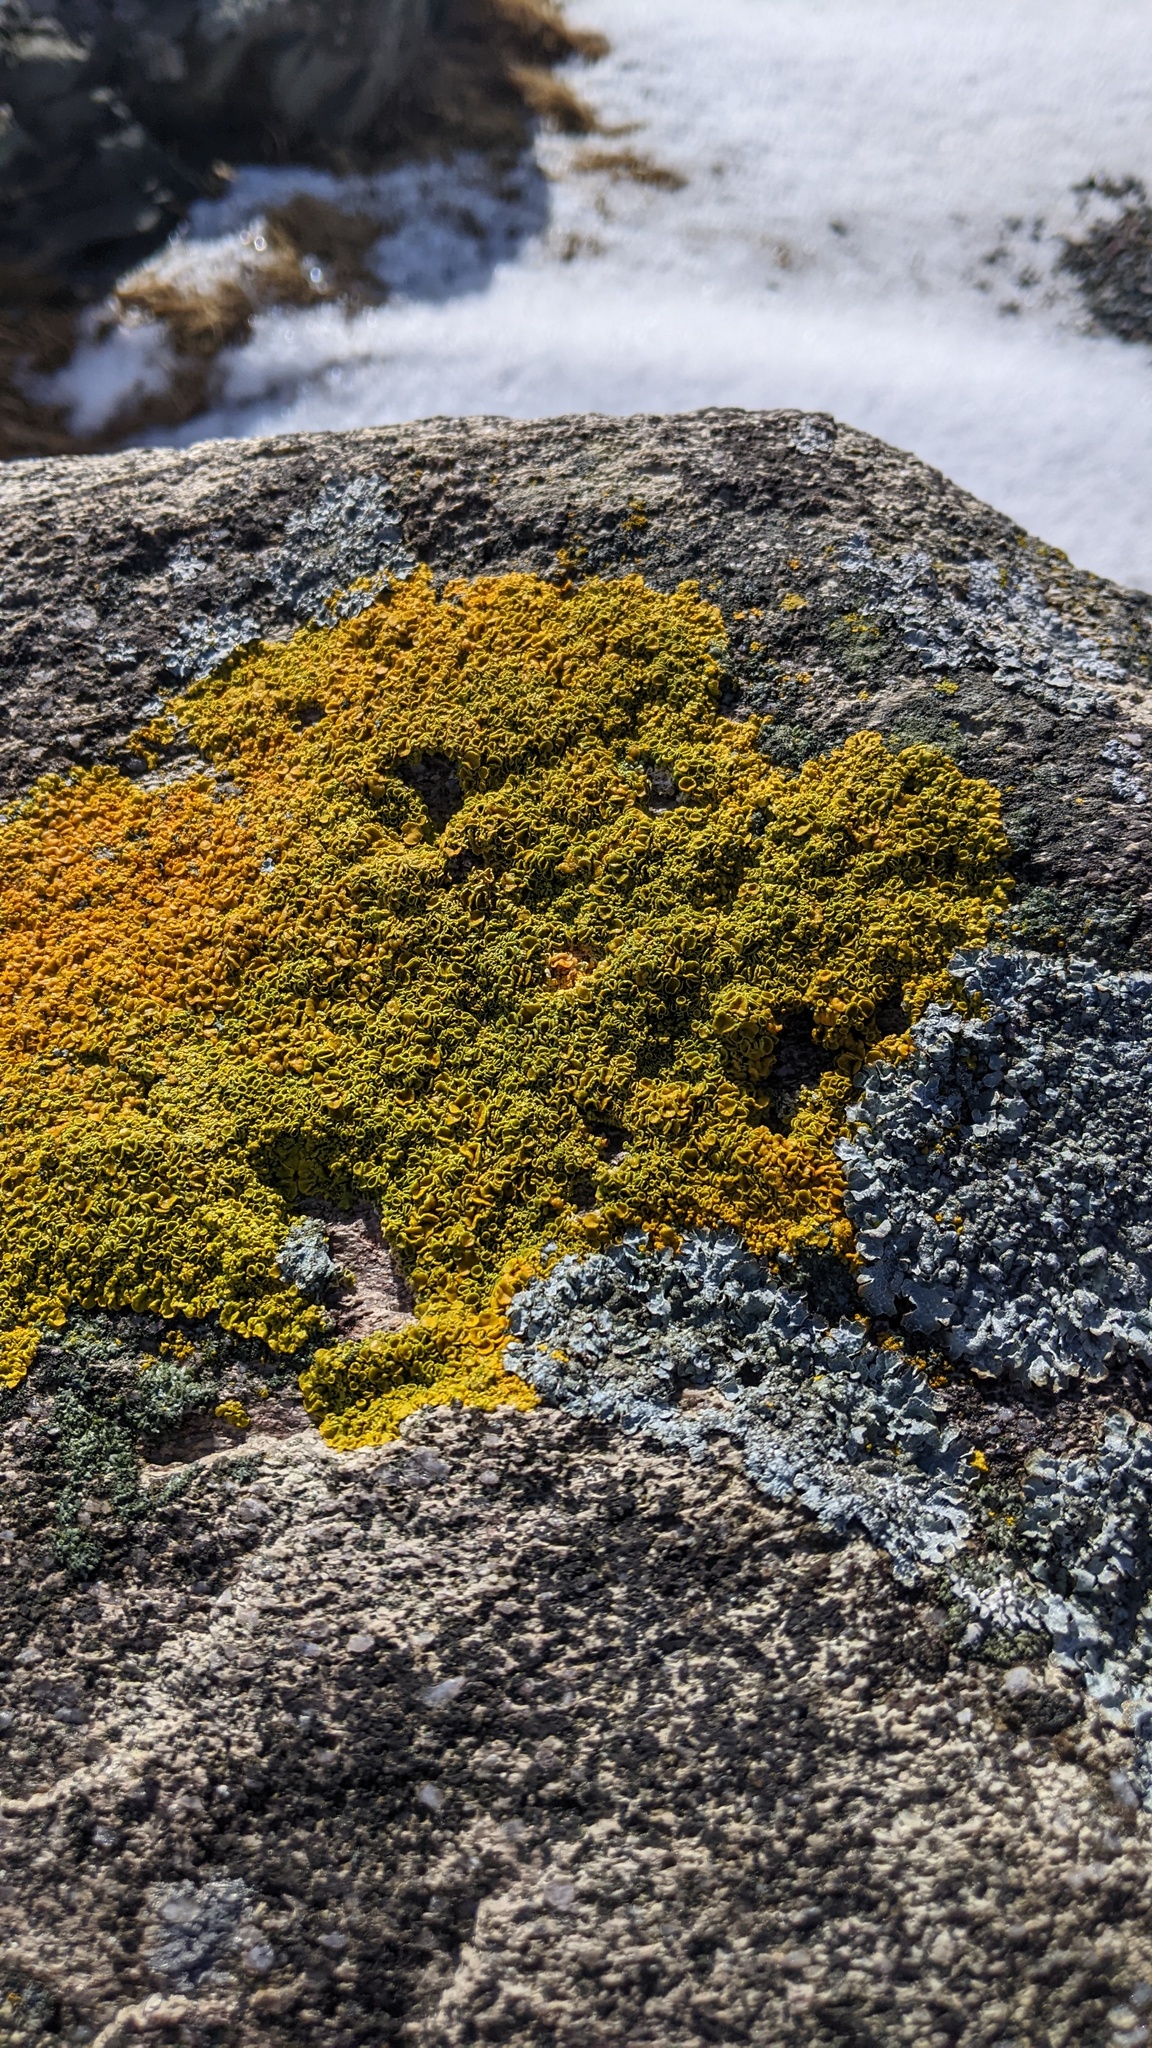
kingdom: Fungi
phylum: Ascomycota
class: Lecanoromycetes
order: Teloschistales
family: Teloschistaceae
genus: Xanthoria
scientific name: Xanthoria parietina
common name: Common orange lichen
